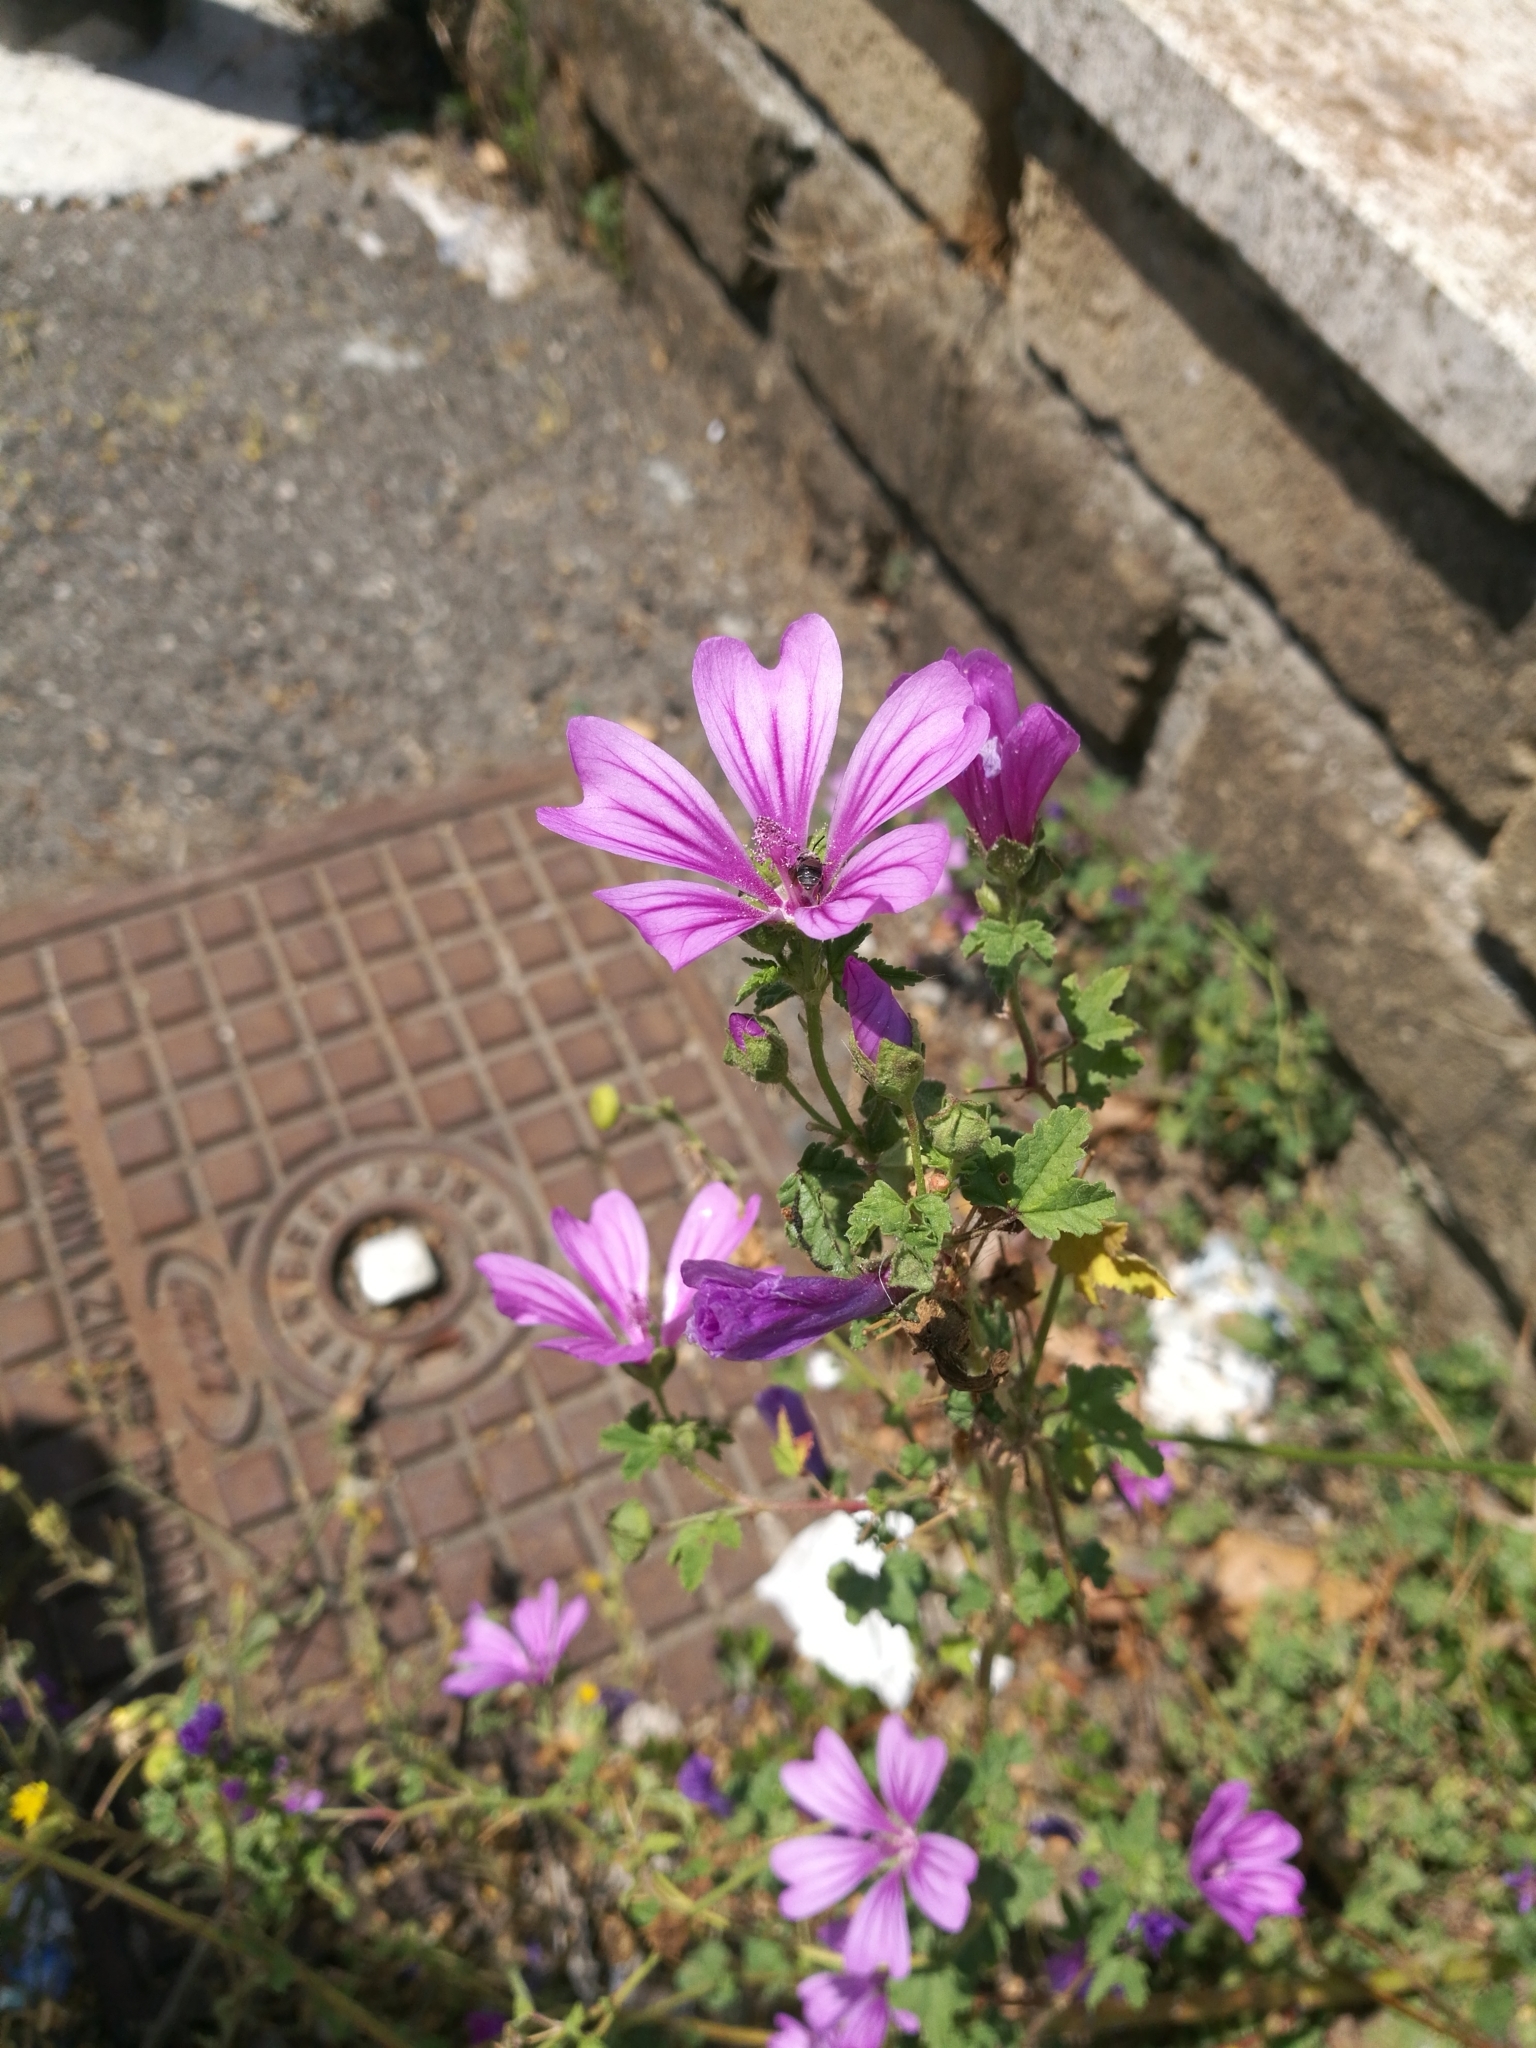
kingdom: Plantae
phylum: Tracheophyta
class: Magnoliopsida
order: Malvales
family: Malvaceae
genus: Malva
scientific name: Malva sylvestris
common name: Common mallow
